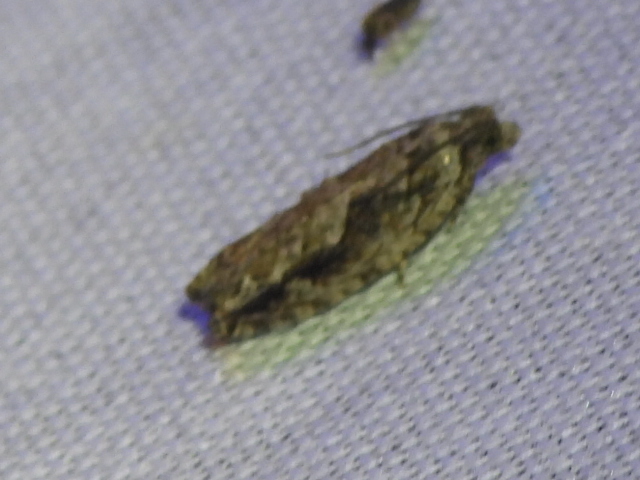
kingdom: Animalia
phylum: Arthropoda
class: Insecta
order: Lepidoptera
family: Tortricidae
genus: Gretchena
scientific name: Gretchena bolliana
